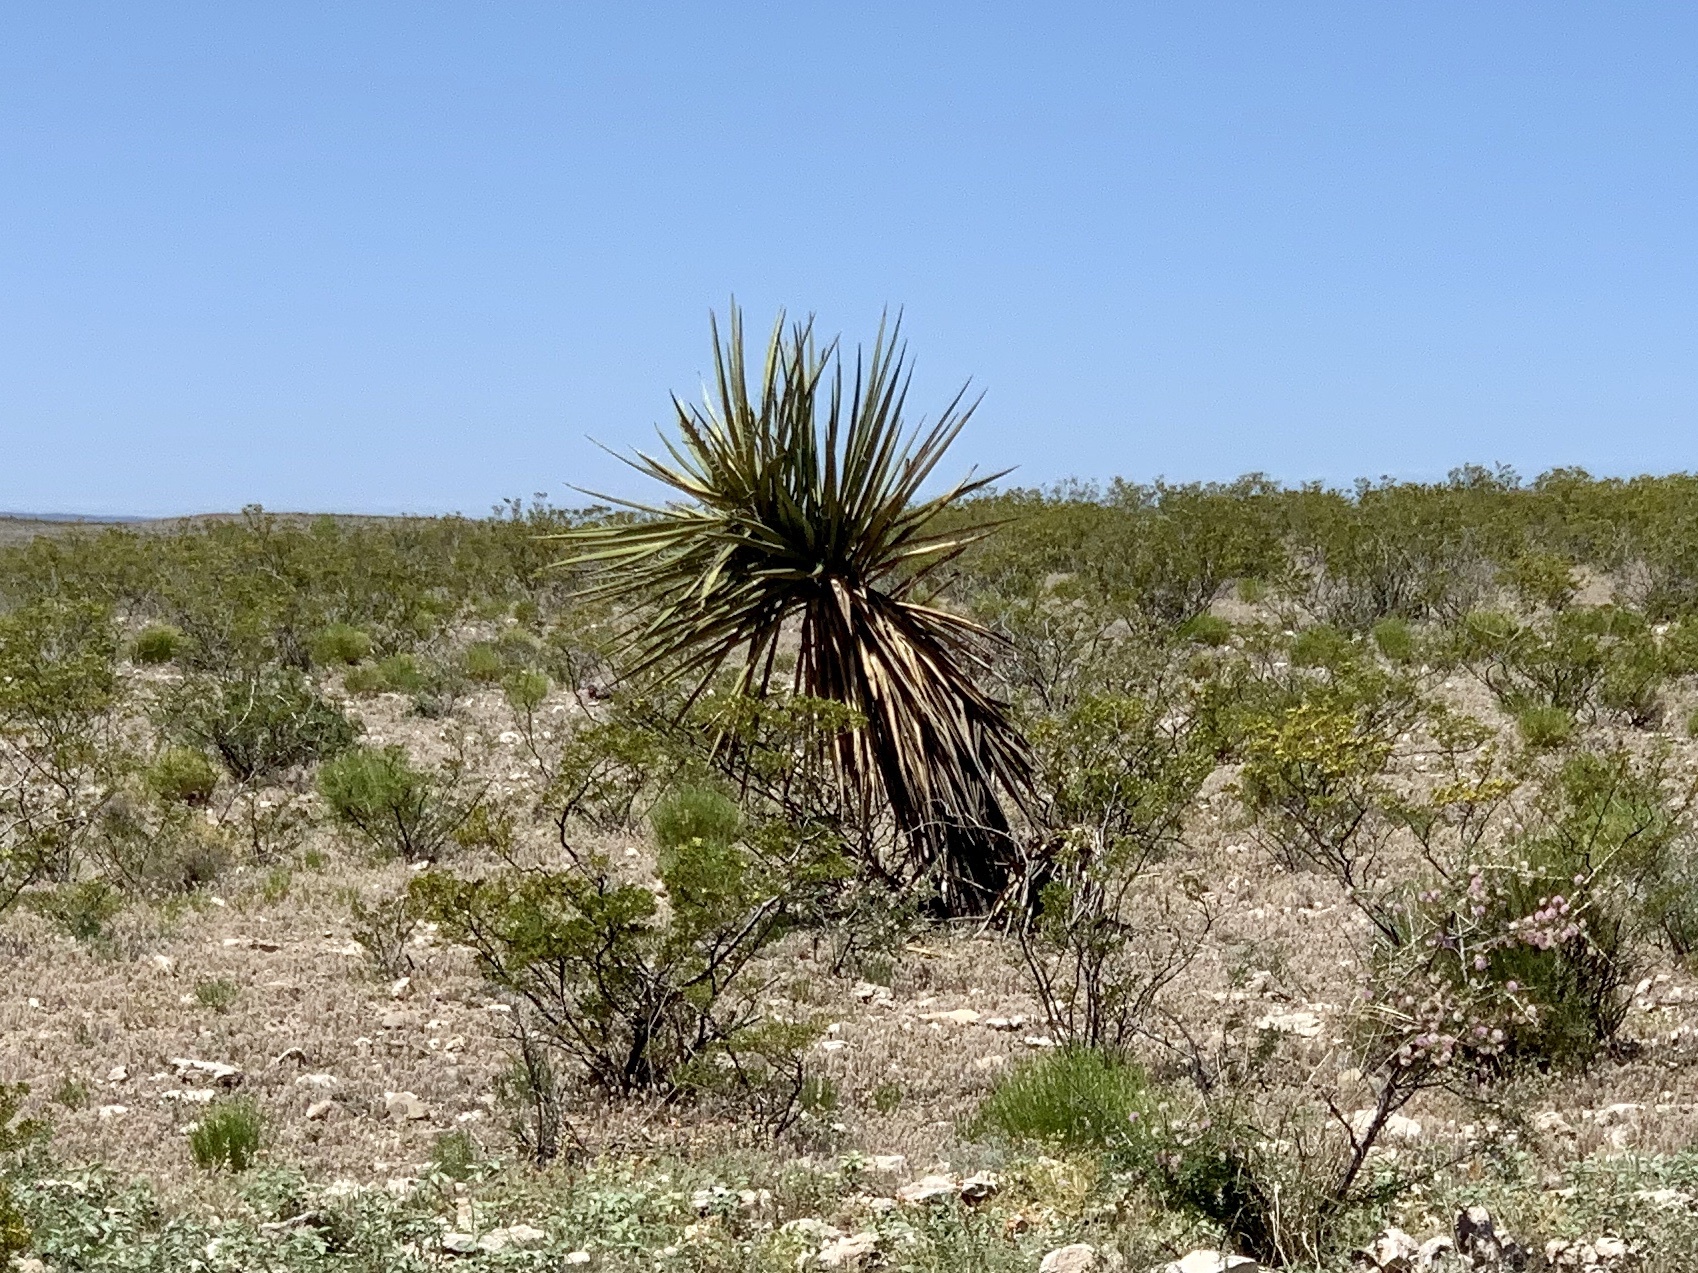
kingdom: Plantae
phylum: Tracheophyta
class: Liliopsida
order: Asparagales
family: Asparagaceae
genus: Yucca
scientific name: Yucca treculiana
